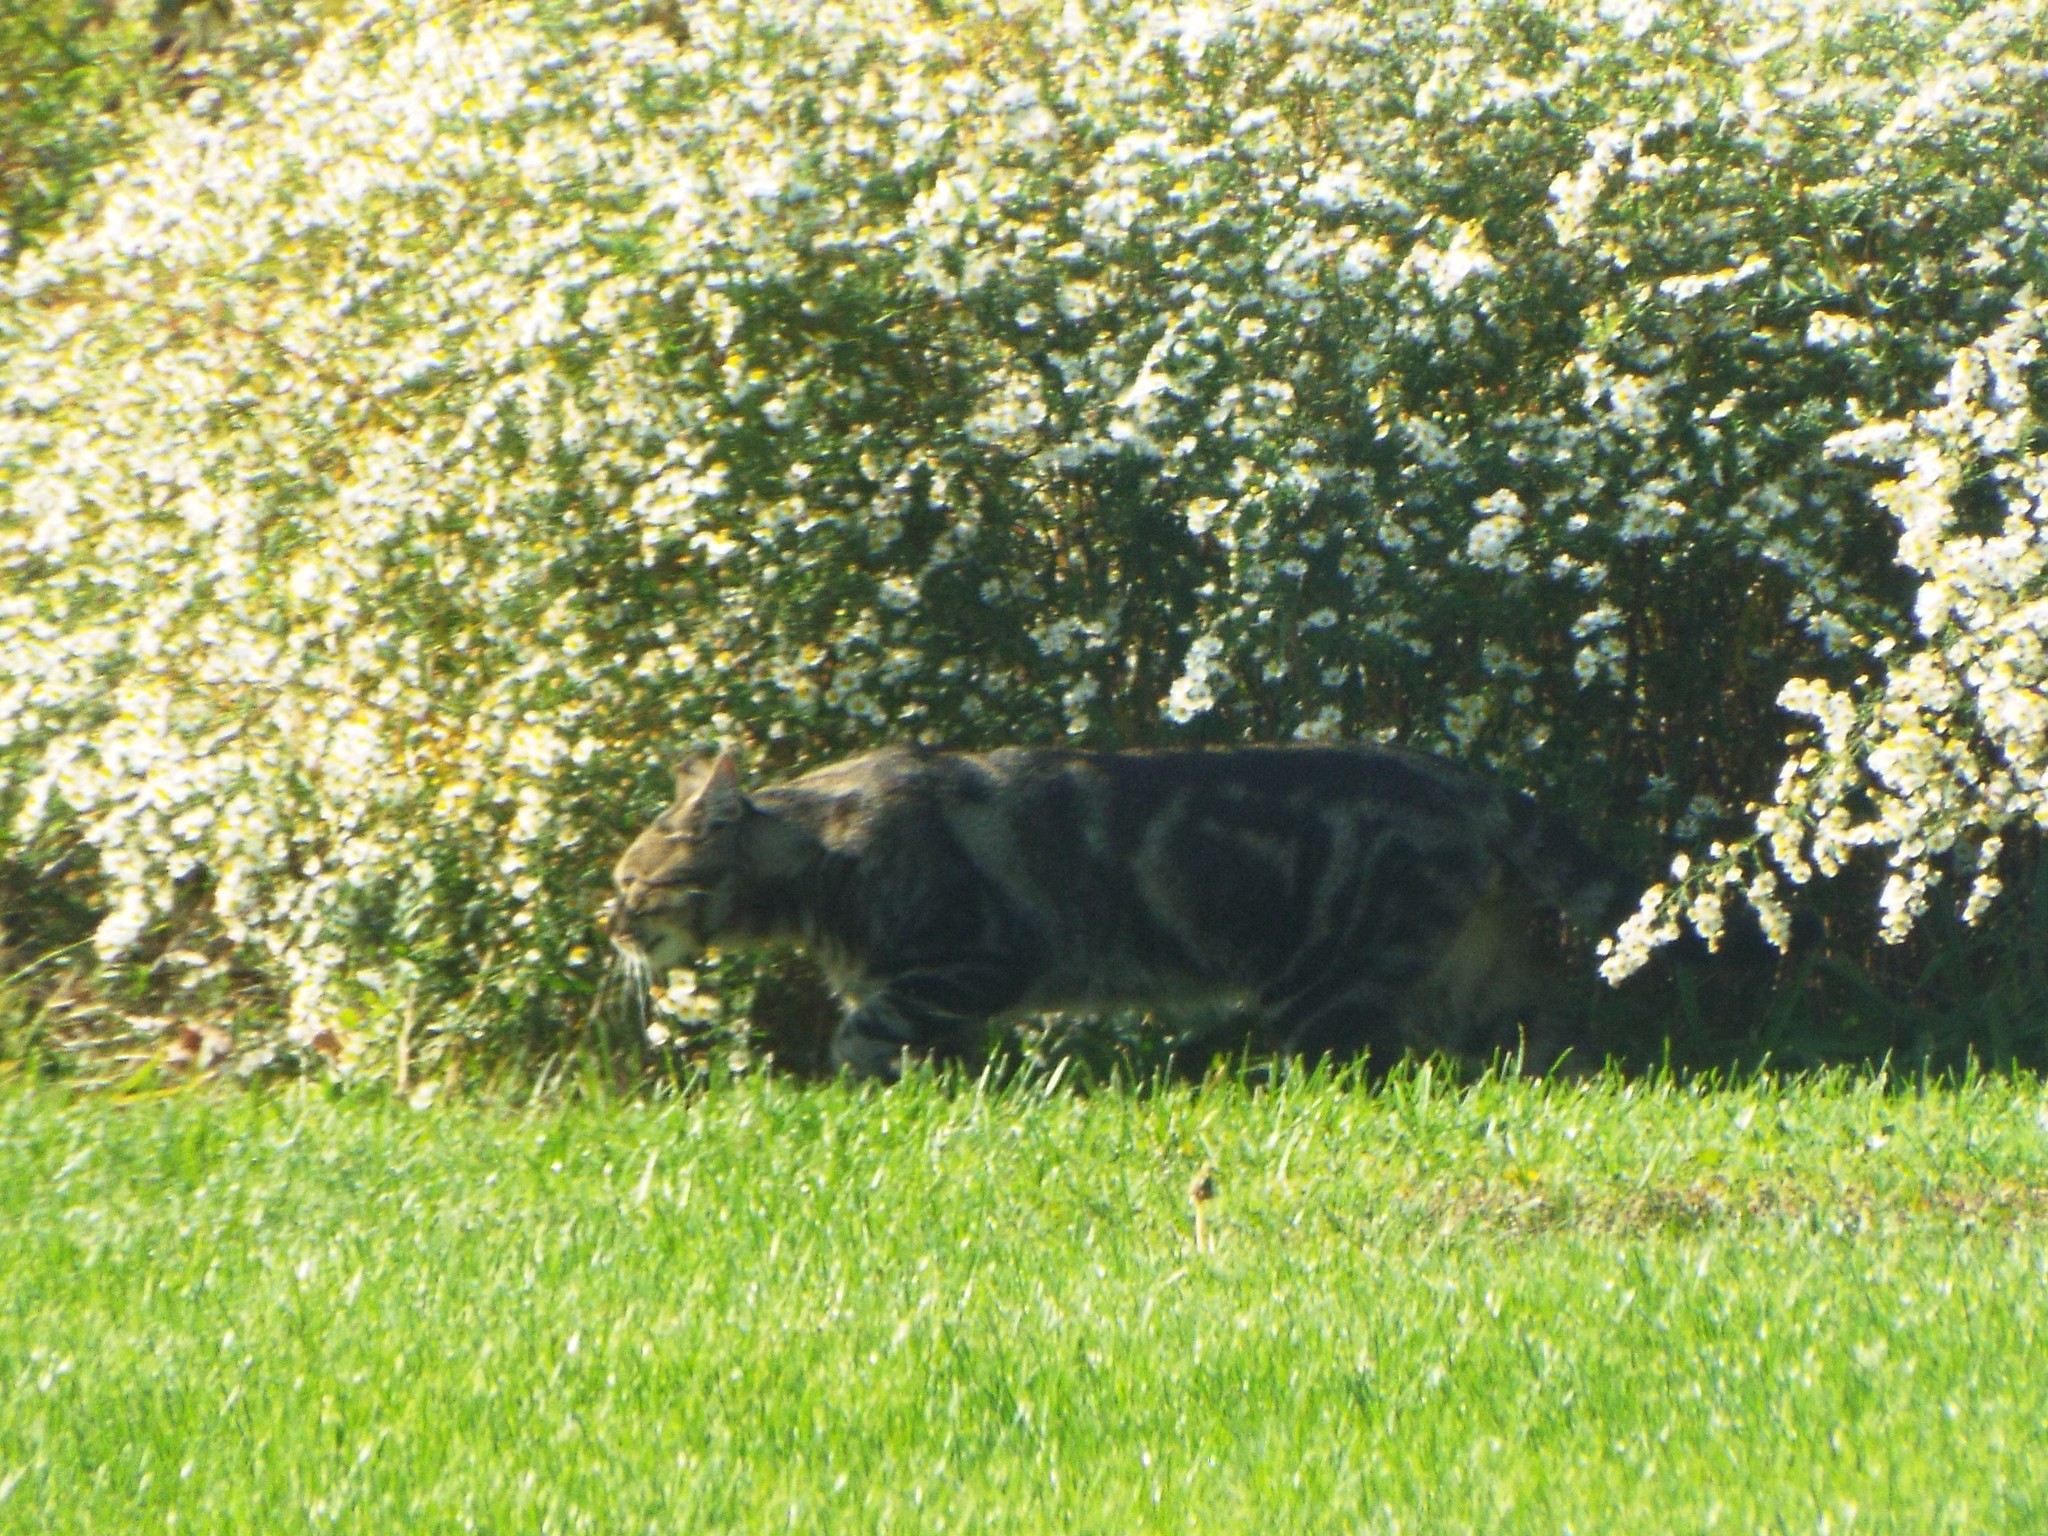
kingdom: Animalia
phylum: Chordata
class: Mammalia
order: Carnivora
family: Felidae
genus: Felis
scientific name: Felis catus
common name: Domestic cat
